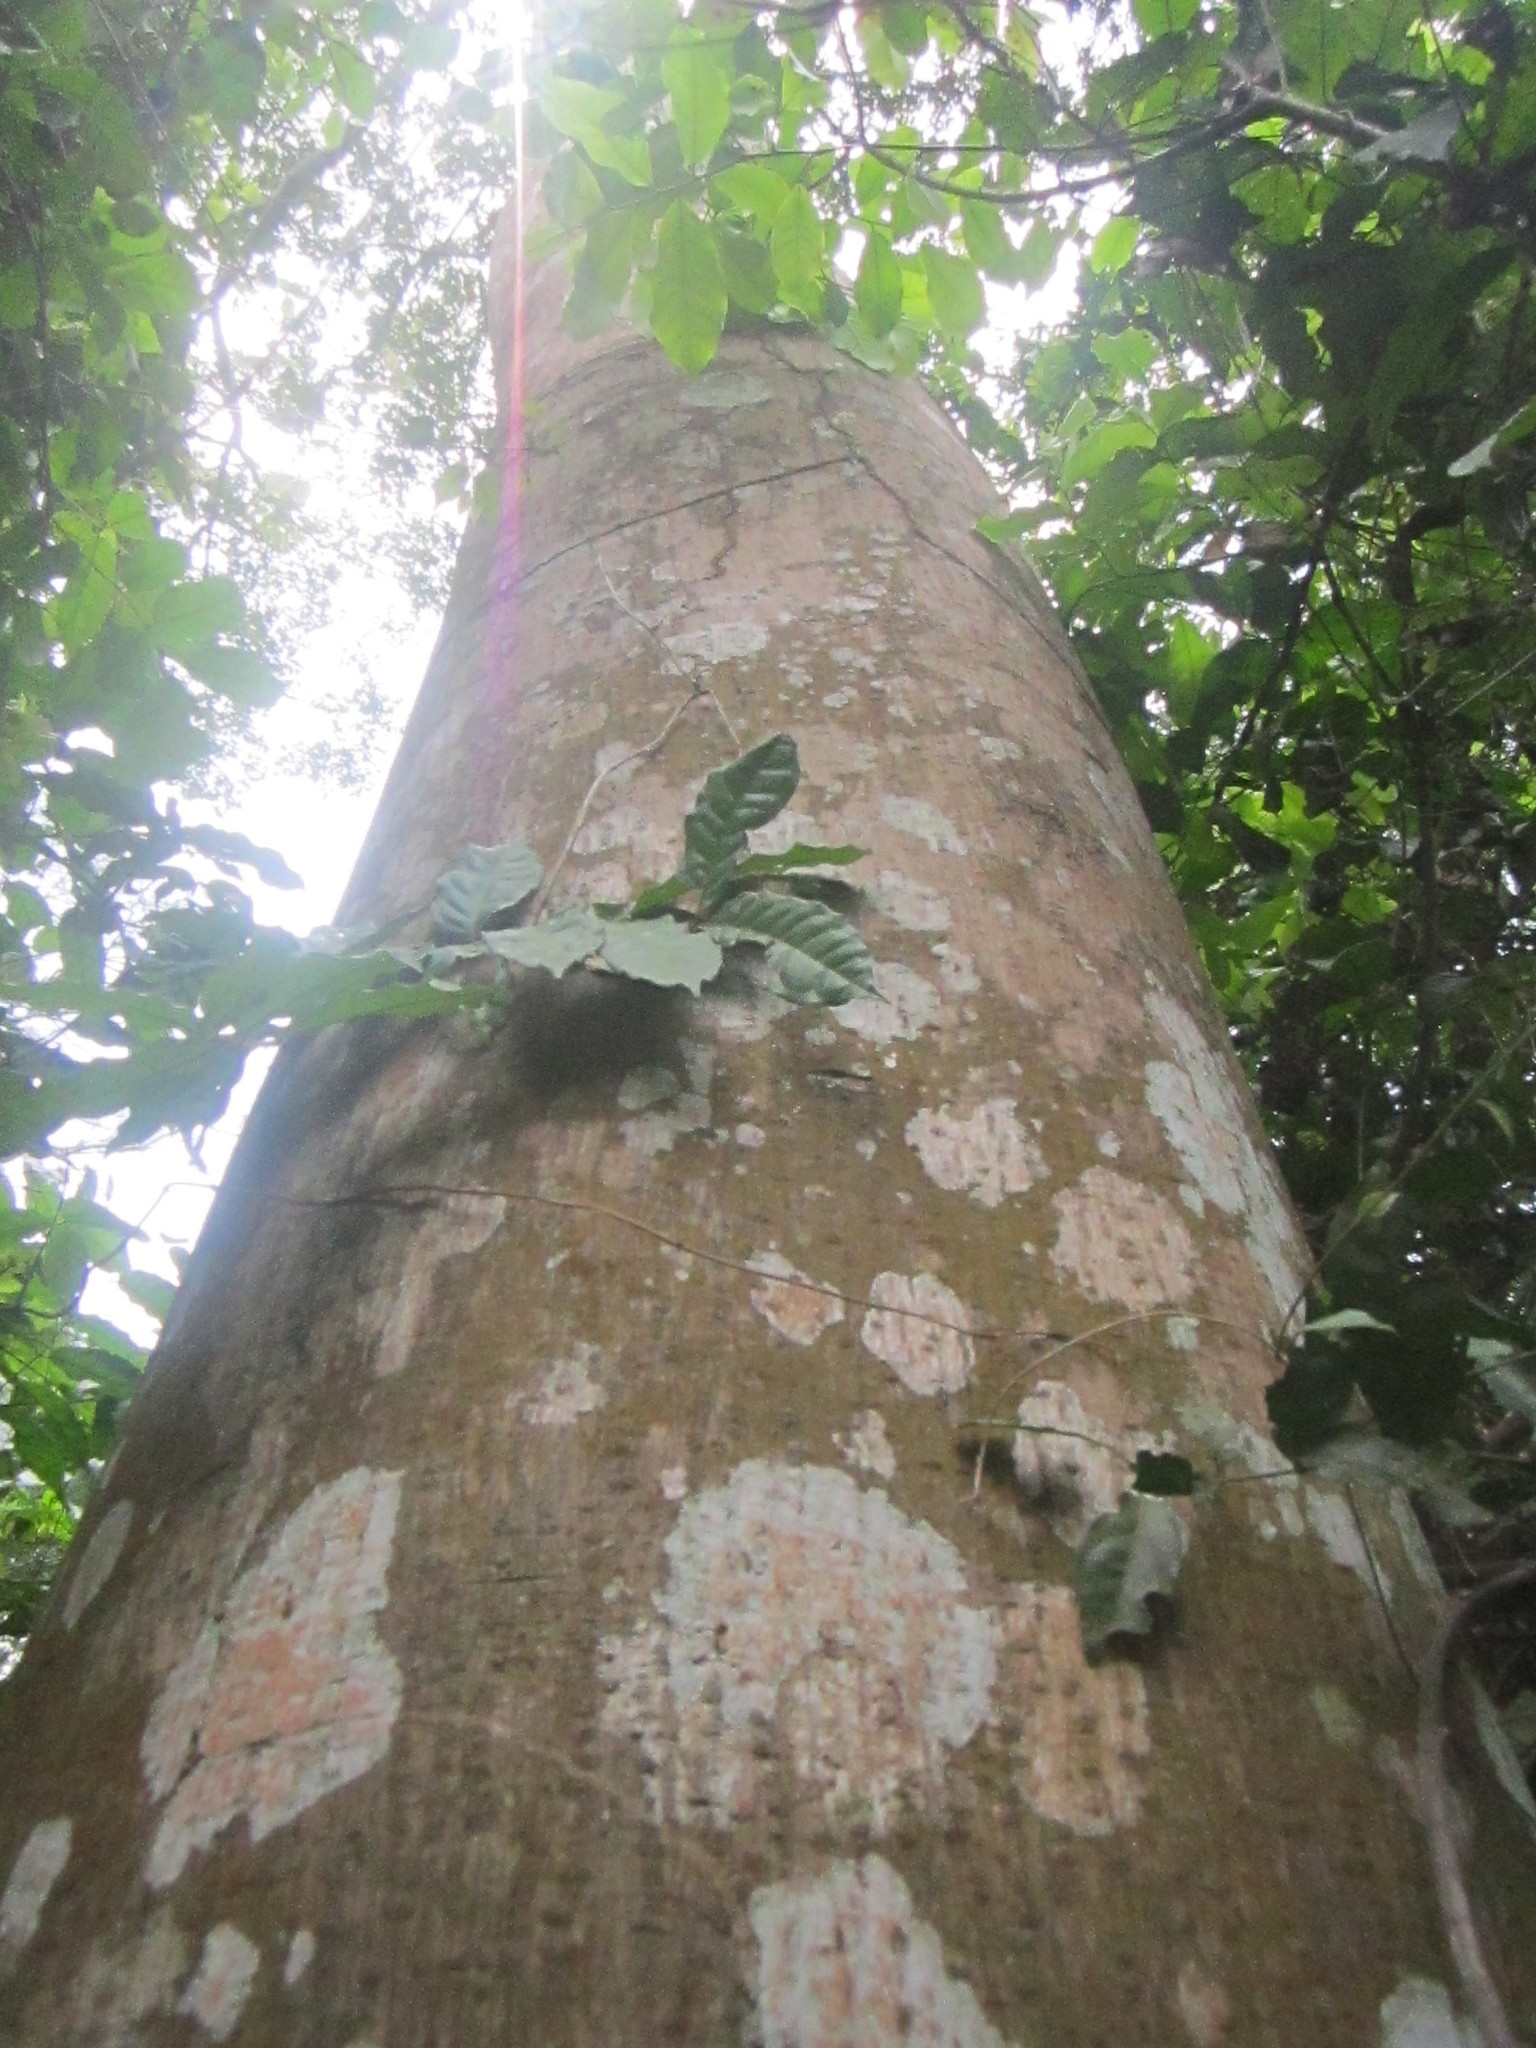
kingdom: Plantae
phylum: Tracheophyta
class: Magnoliopsida
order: Rosales
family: Moraceae
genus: Antiaris
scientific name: Antiaris toxicaria
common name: Sackingtree
